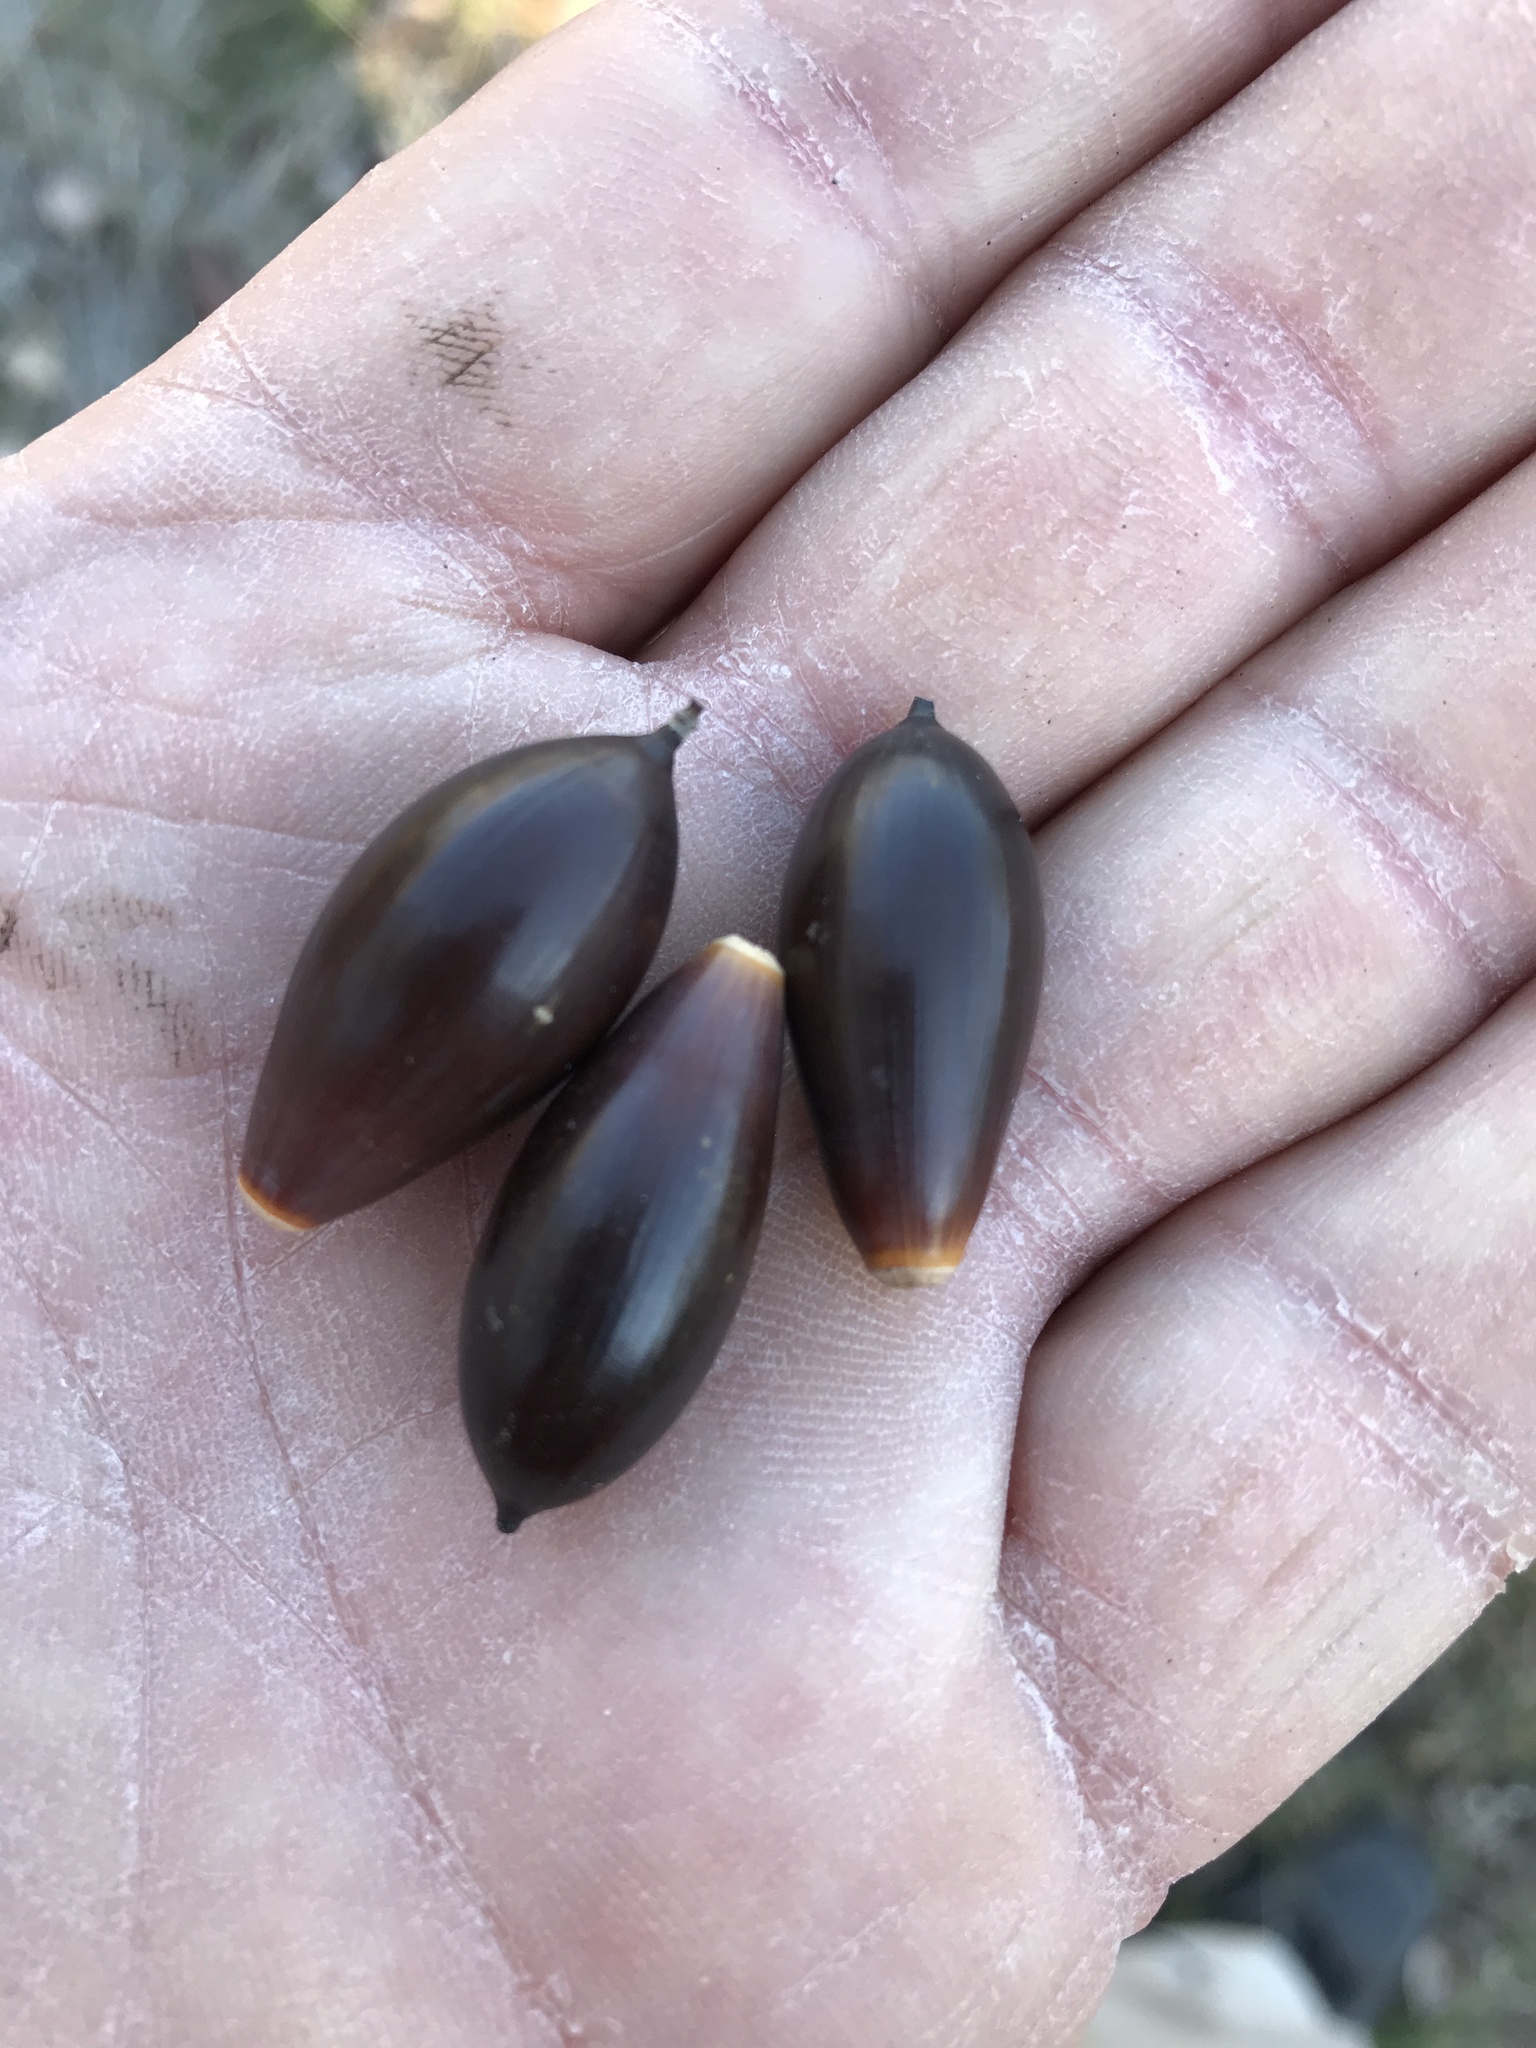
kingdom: Plantae
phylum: Tracheophyta
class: Magnoliopsida
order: Fagales
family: Fagaceae
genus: Quercus
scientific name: Quercus fusiformis
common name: Texas live oak
